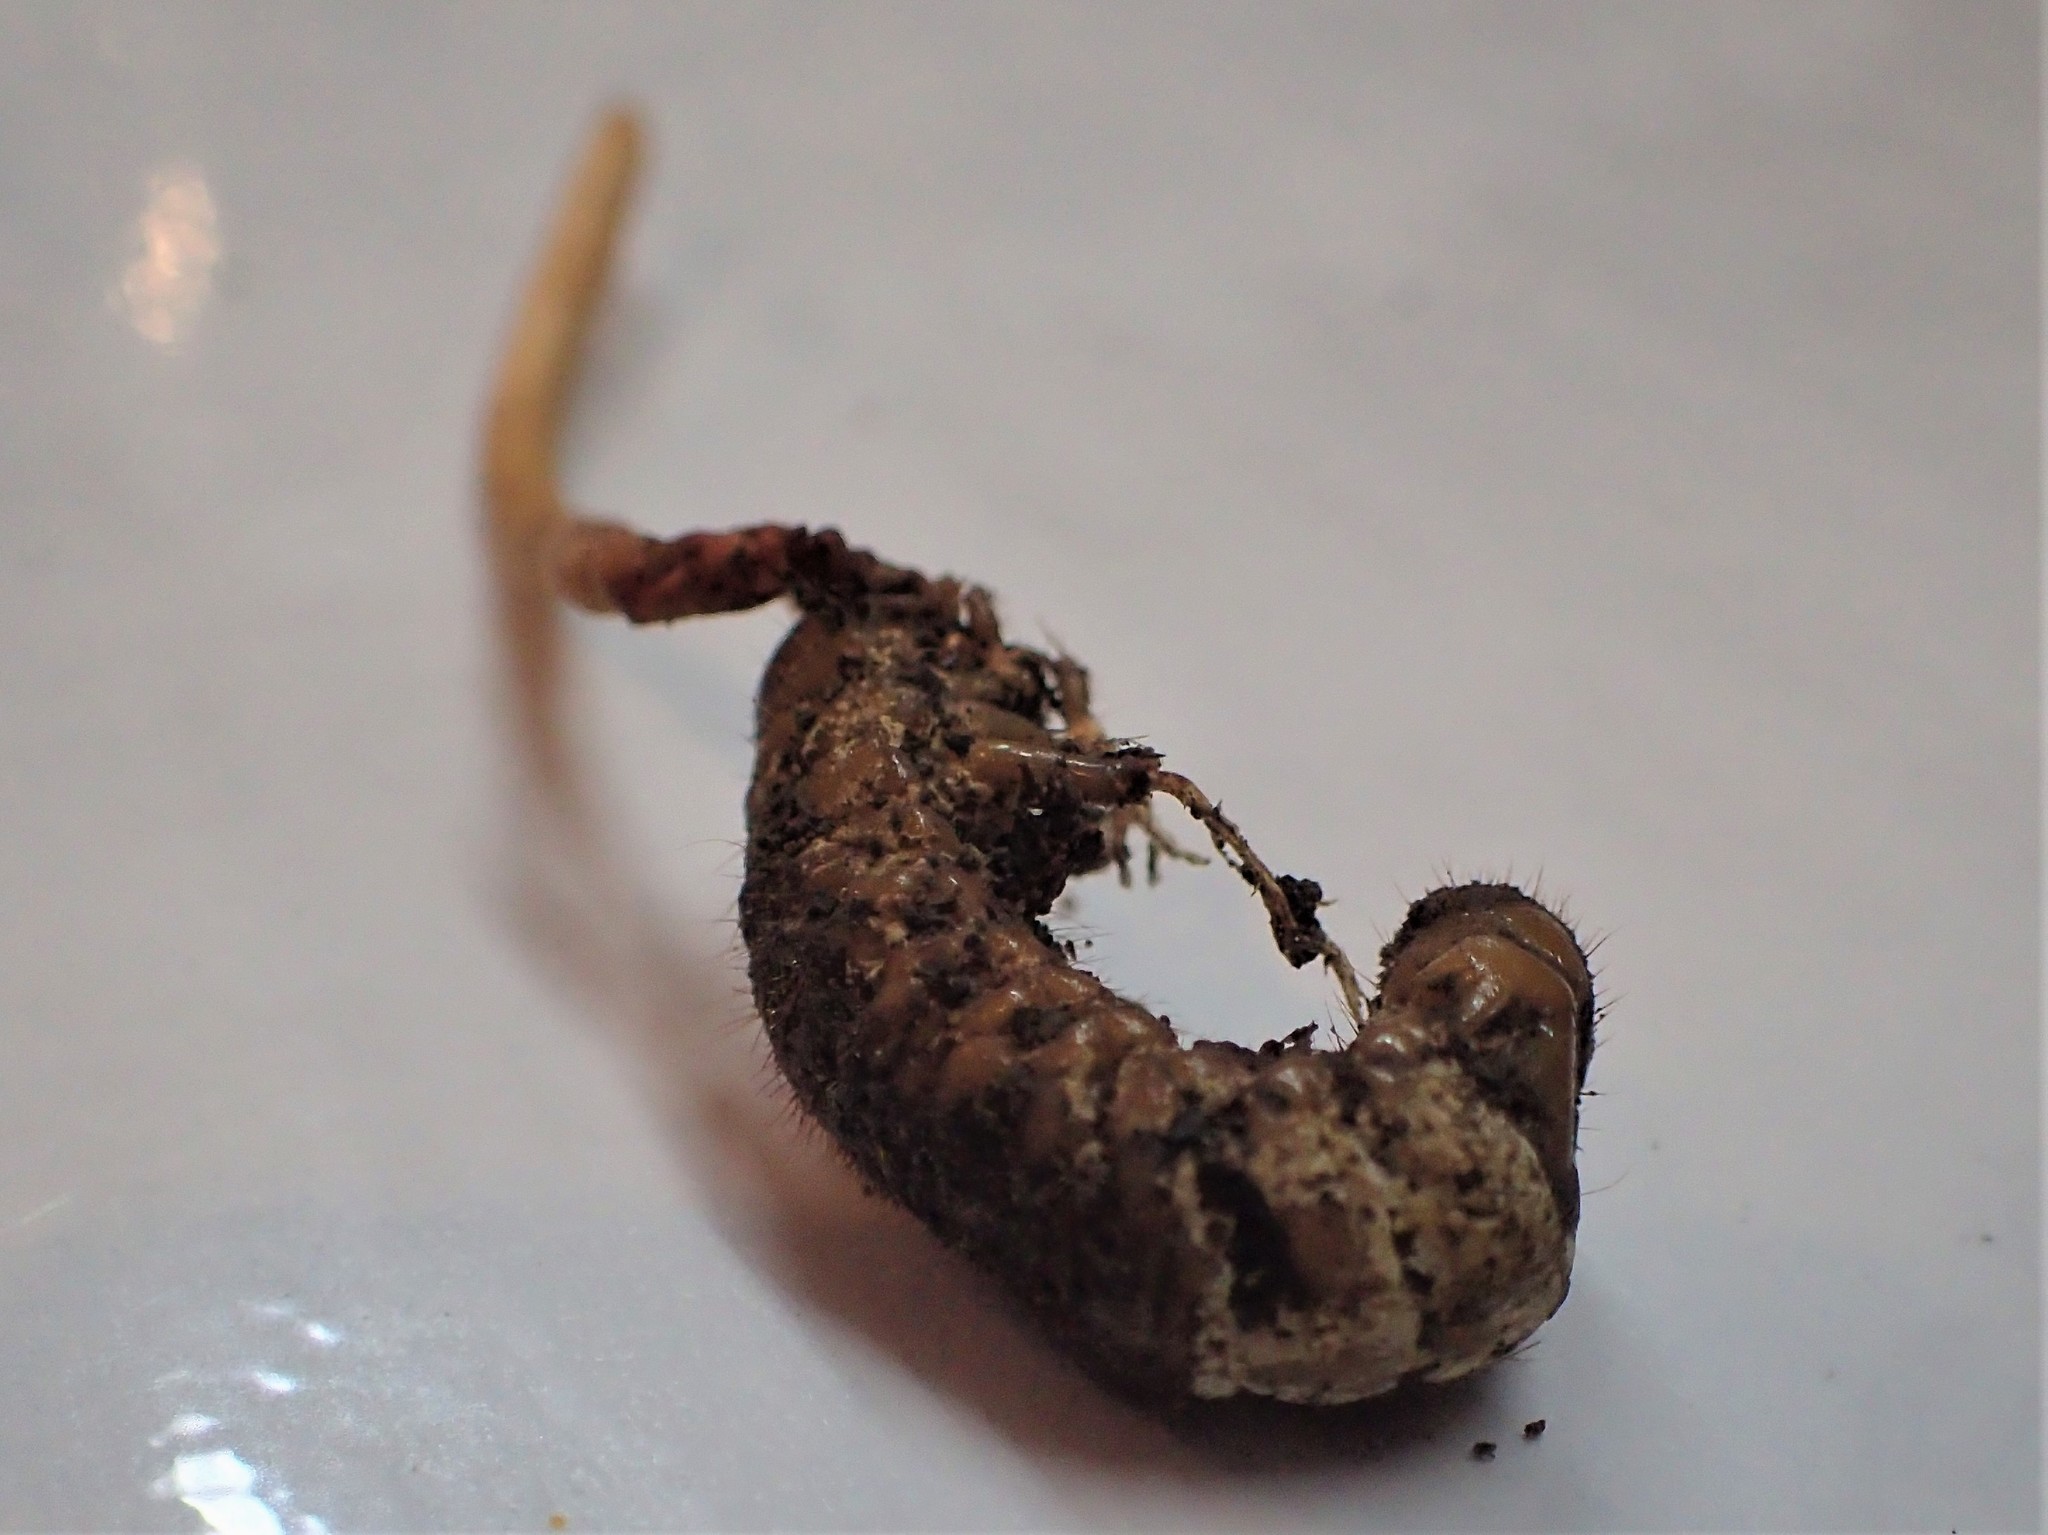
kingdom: Fungi
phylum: Ascomycota
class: Sordariomycetes
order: Hypocreales
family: Ophiocordycipitaceae
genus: Ophiocordyceps
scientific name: Ophiocordyceps melolonthae
